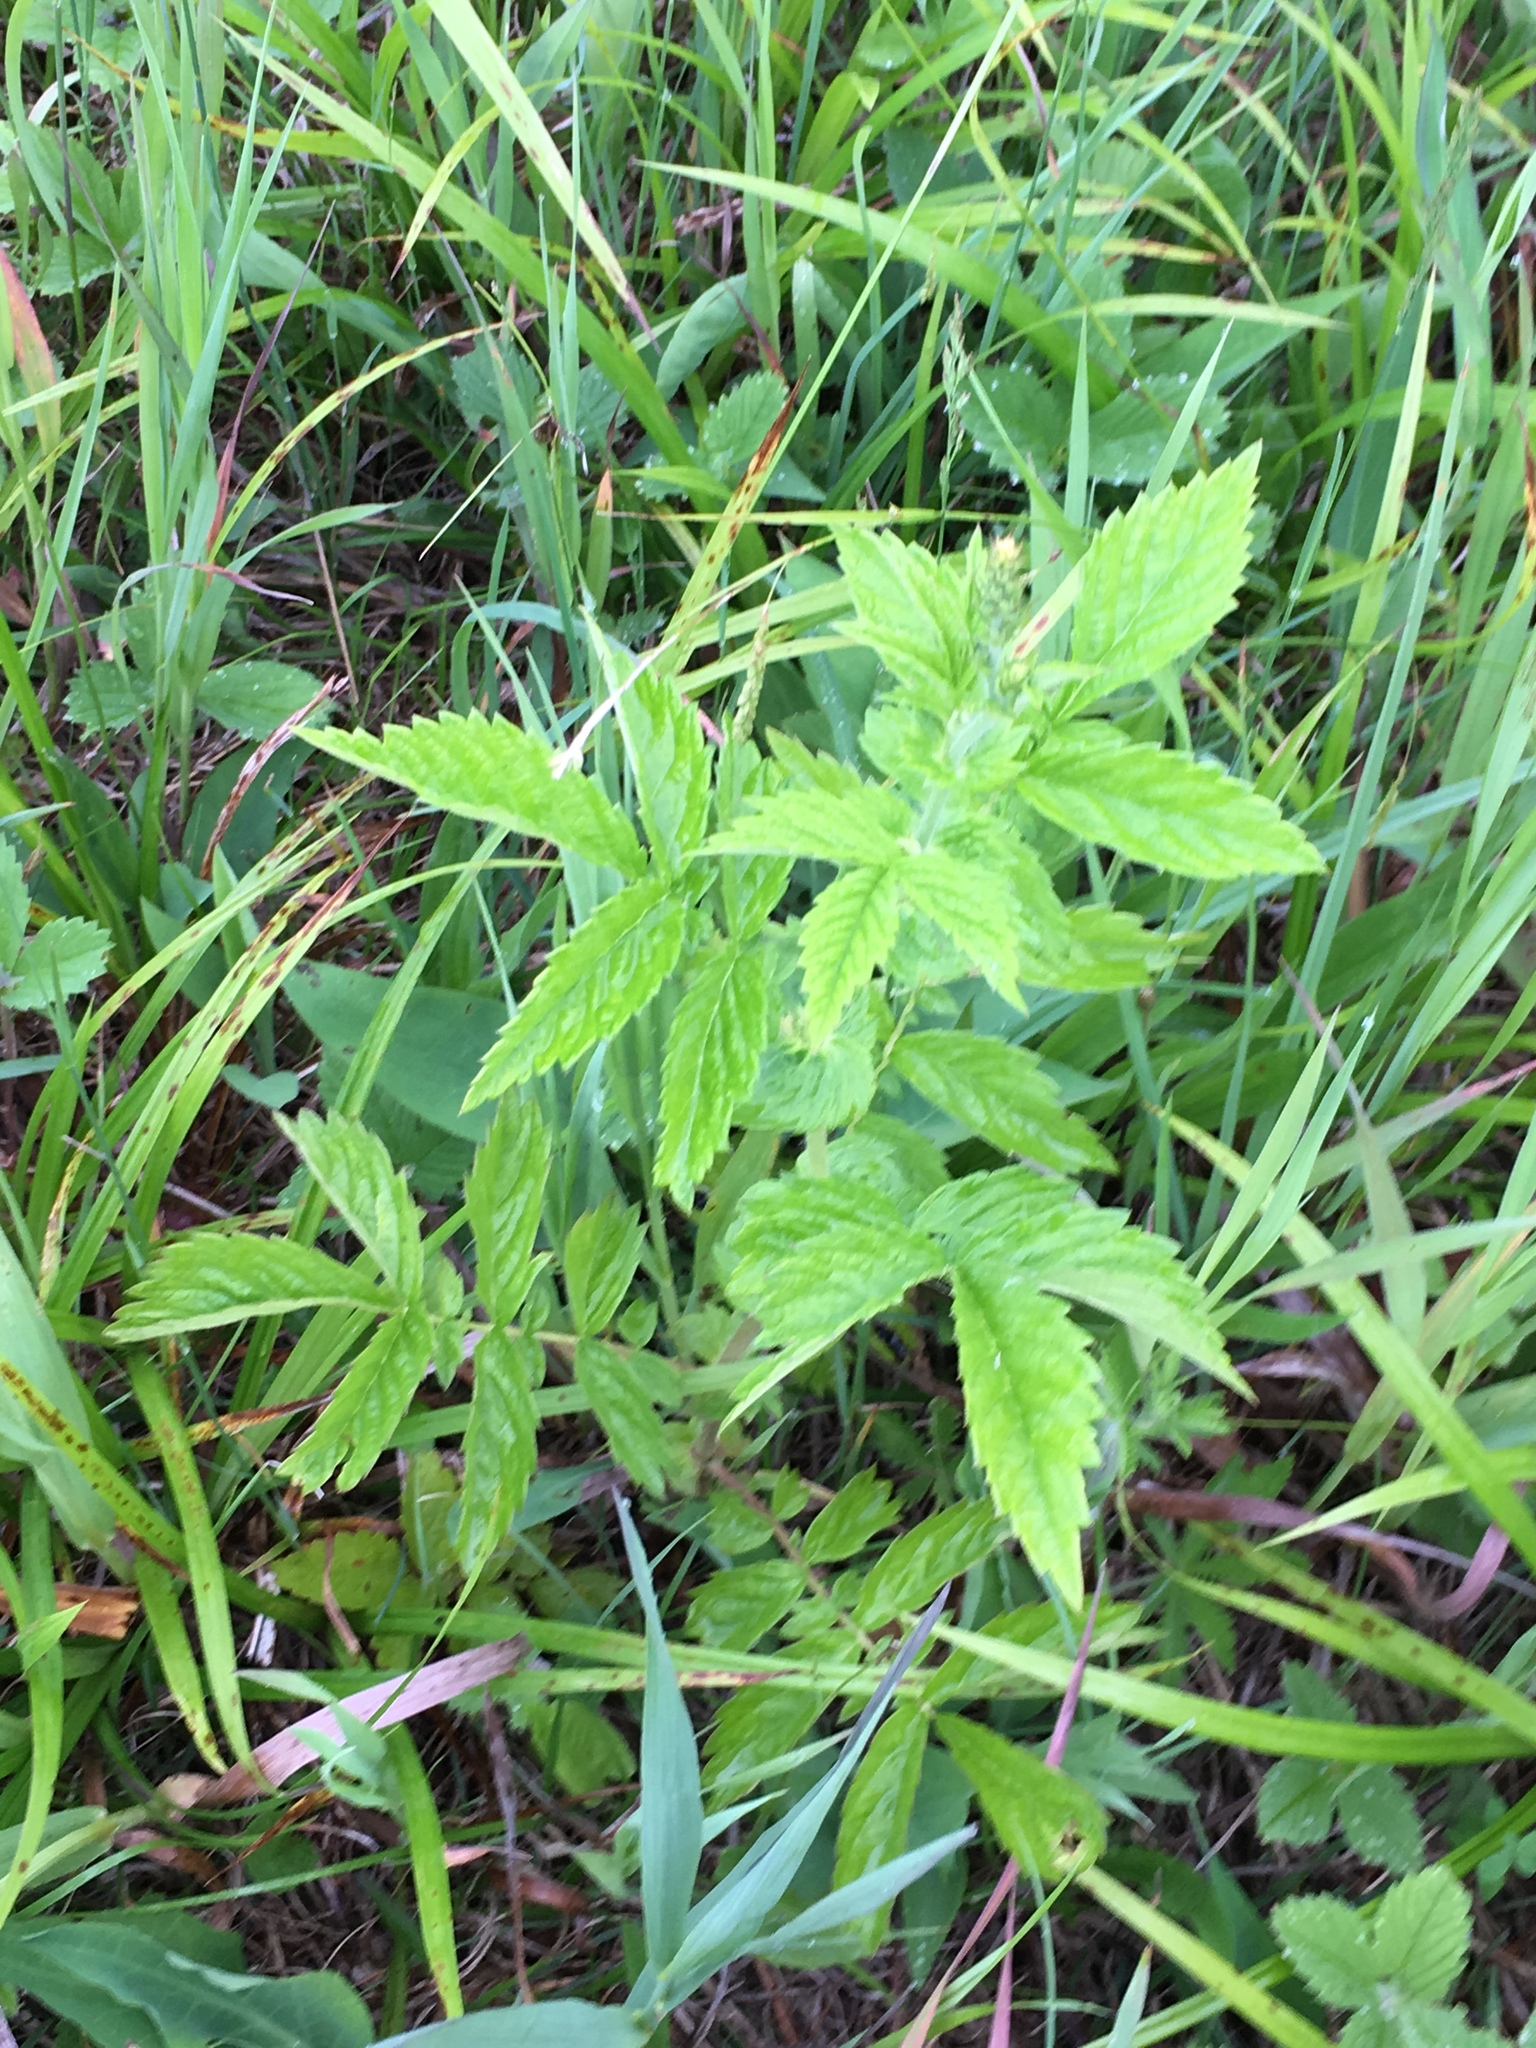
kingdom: Plantae
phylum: Tracheophyta
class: Magnoliopsida
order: Rosales
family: Rosaceae
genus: Agrimonia
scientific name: Agrimonia gryposepala
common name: Common agrimony
